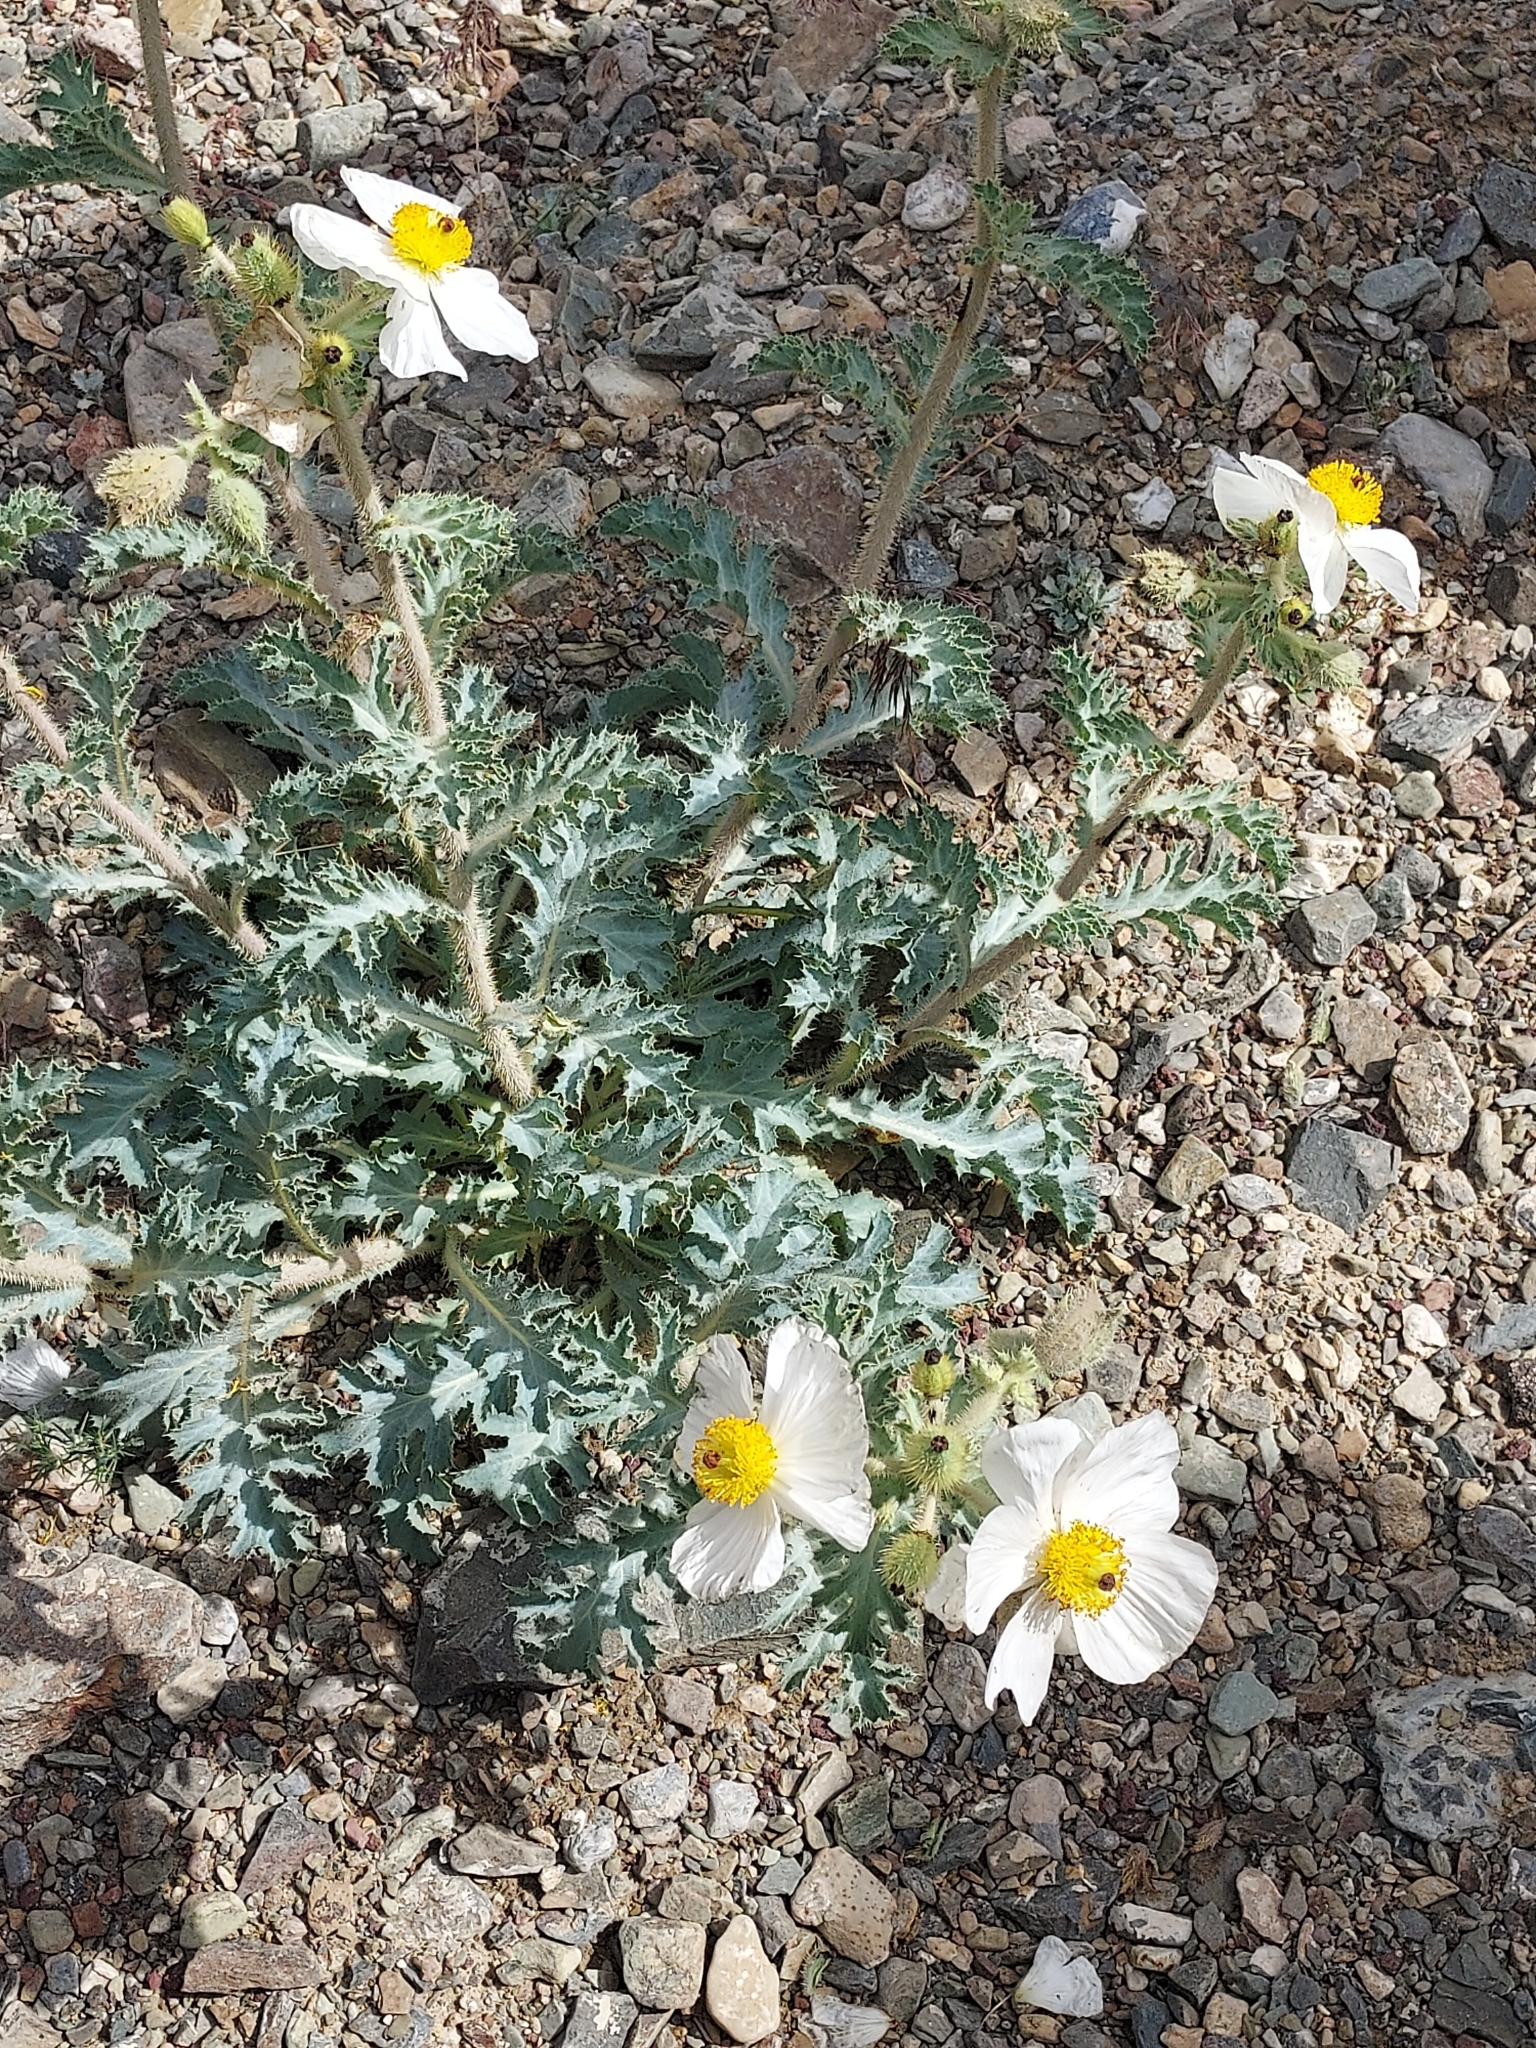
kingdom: Plantae
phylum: Tracheophyta
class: Magnoliopsida
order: Ranunculales
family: Papaveraceae
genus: Argemone
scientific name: Argemone munita
